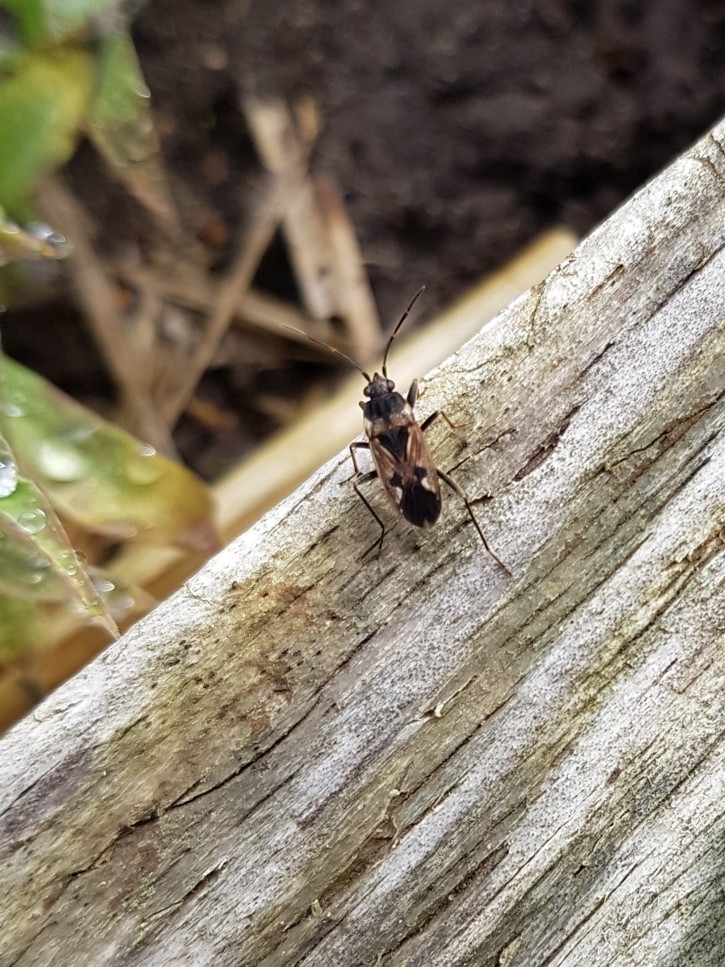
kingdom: Animalia
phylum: Arthropoda
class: Insecta
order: Hemiptera
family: Rhyparochromidae
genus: Rhyparochromus
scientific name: Rhyparochromus vulgaris
